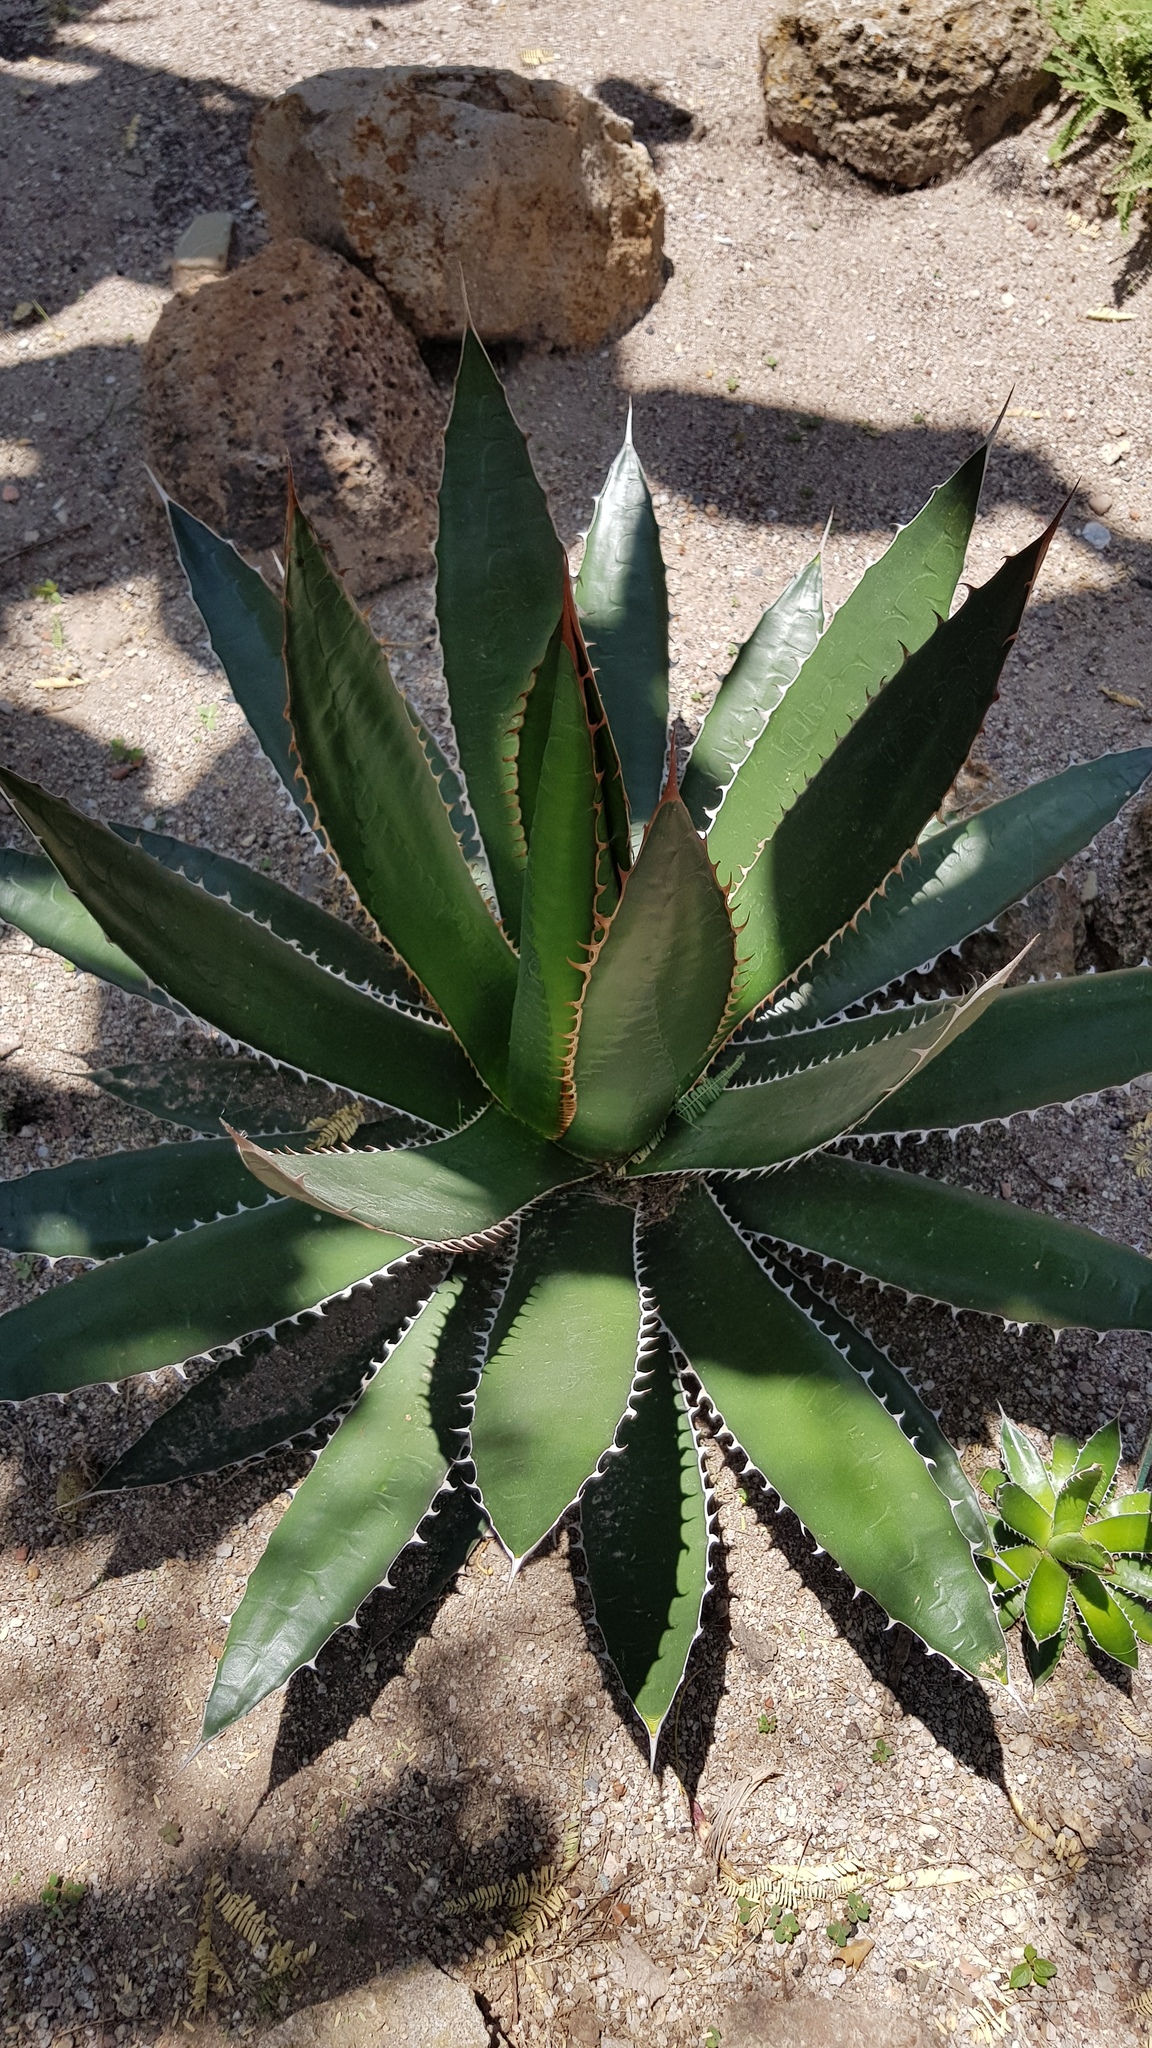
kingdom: Plantae
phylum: Tracheophyta
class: Liliopsida
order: Asparagales
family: Asparagaceae
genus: Agave
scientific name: Agave obscura
